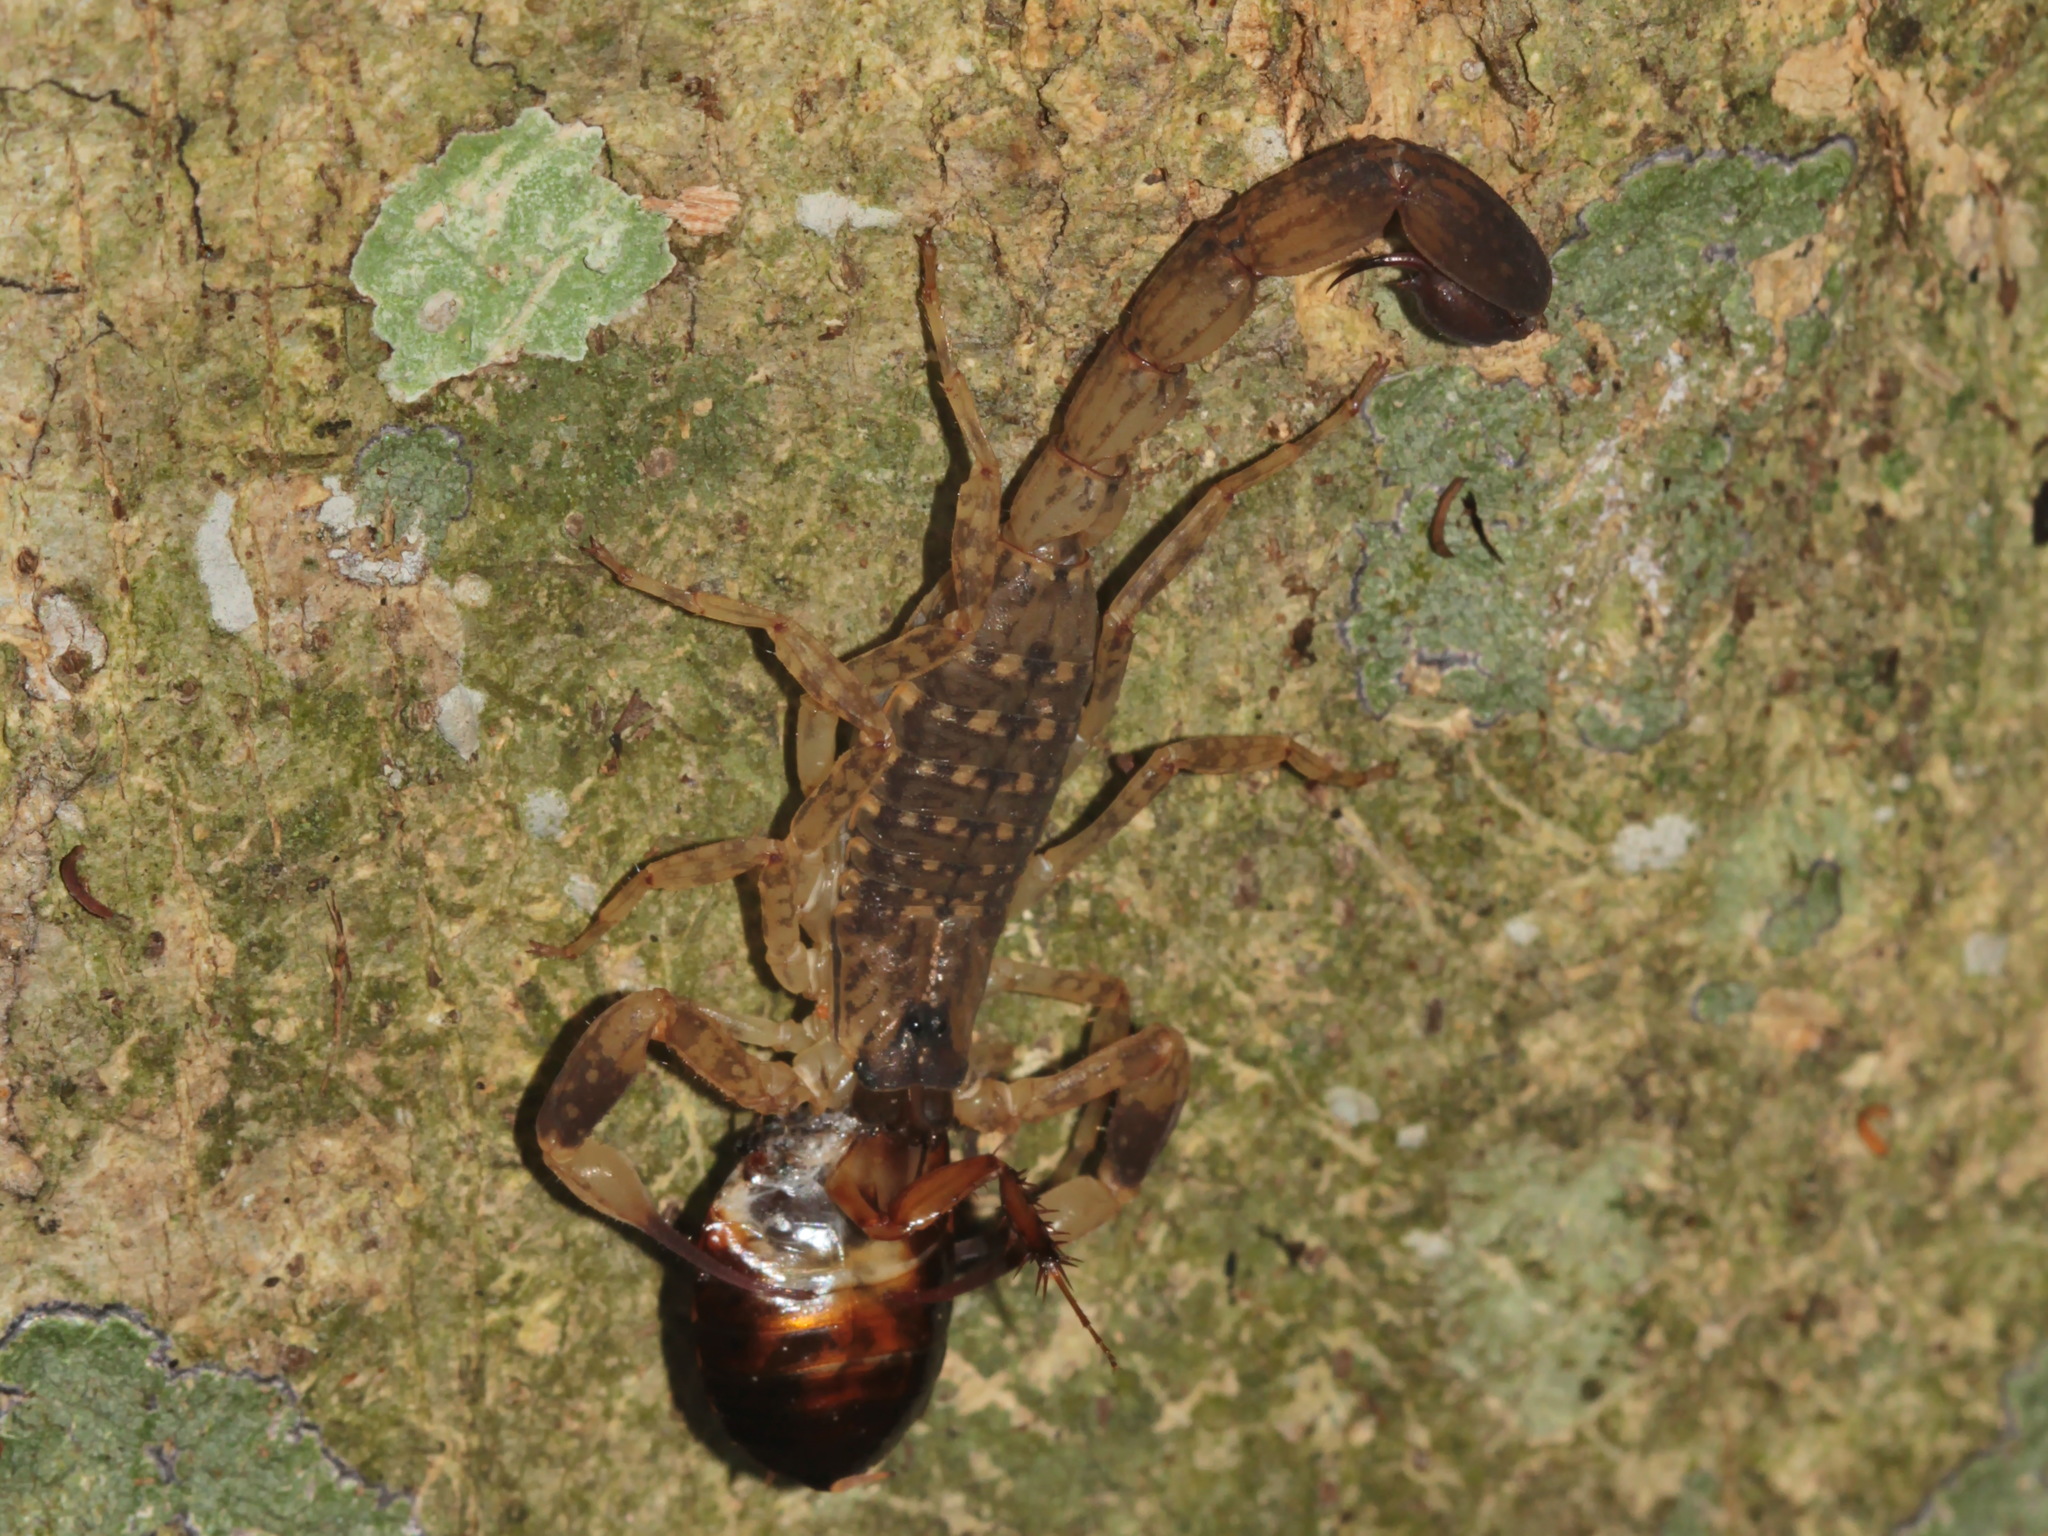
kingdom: Animalia
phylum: Arthropoda
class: Arachnida
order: Scorpiones
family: Buthidae
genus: Lychas
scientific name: Lychas mucronatus
